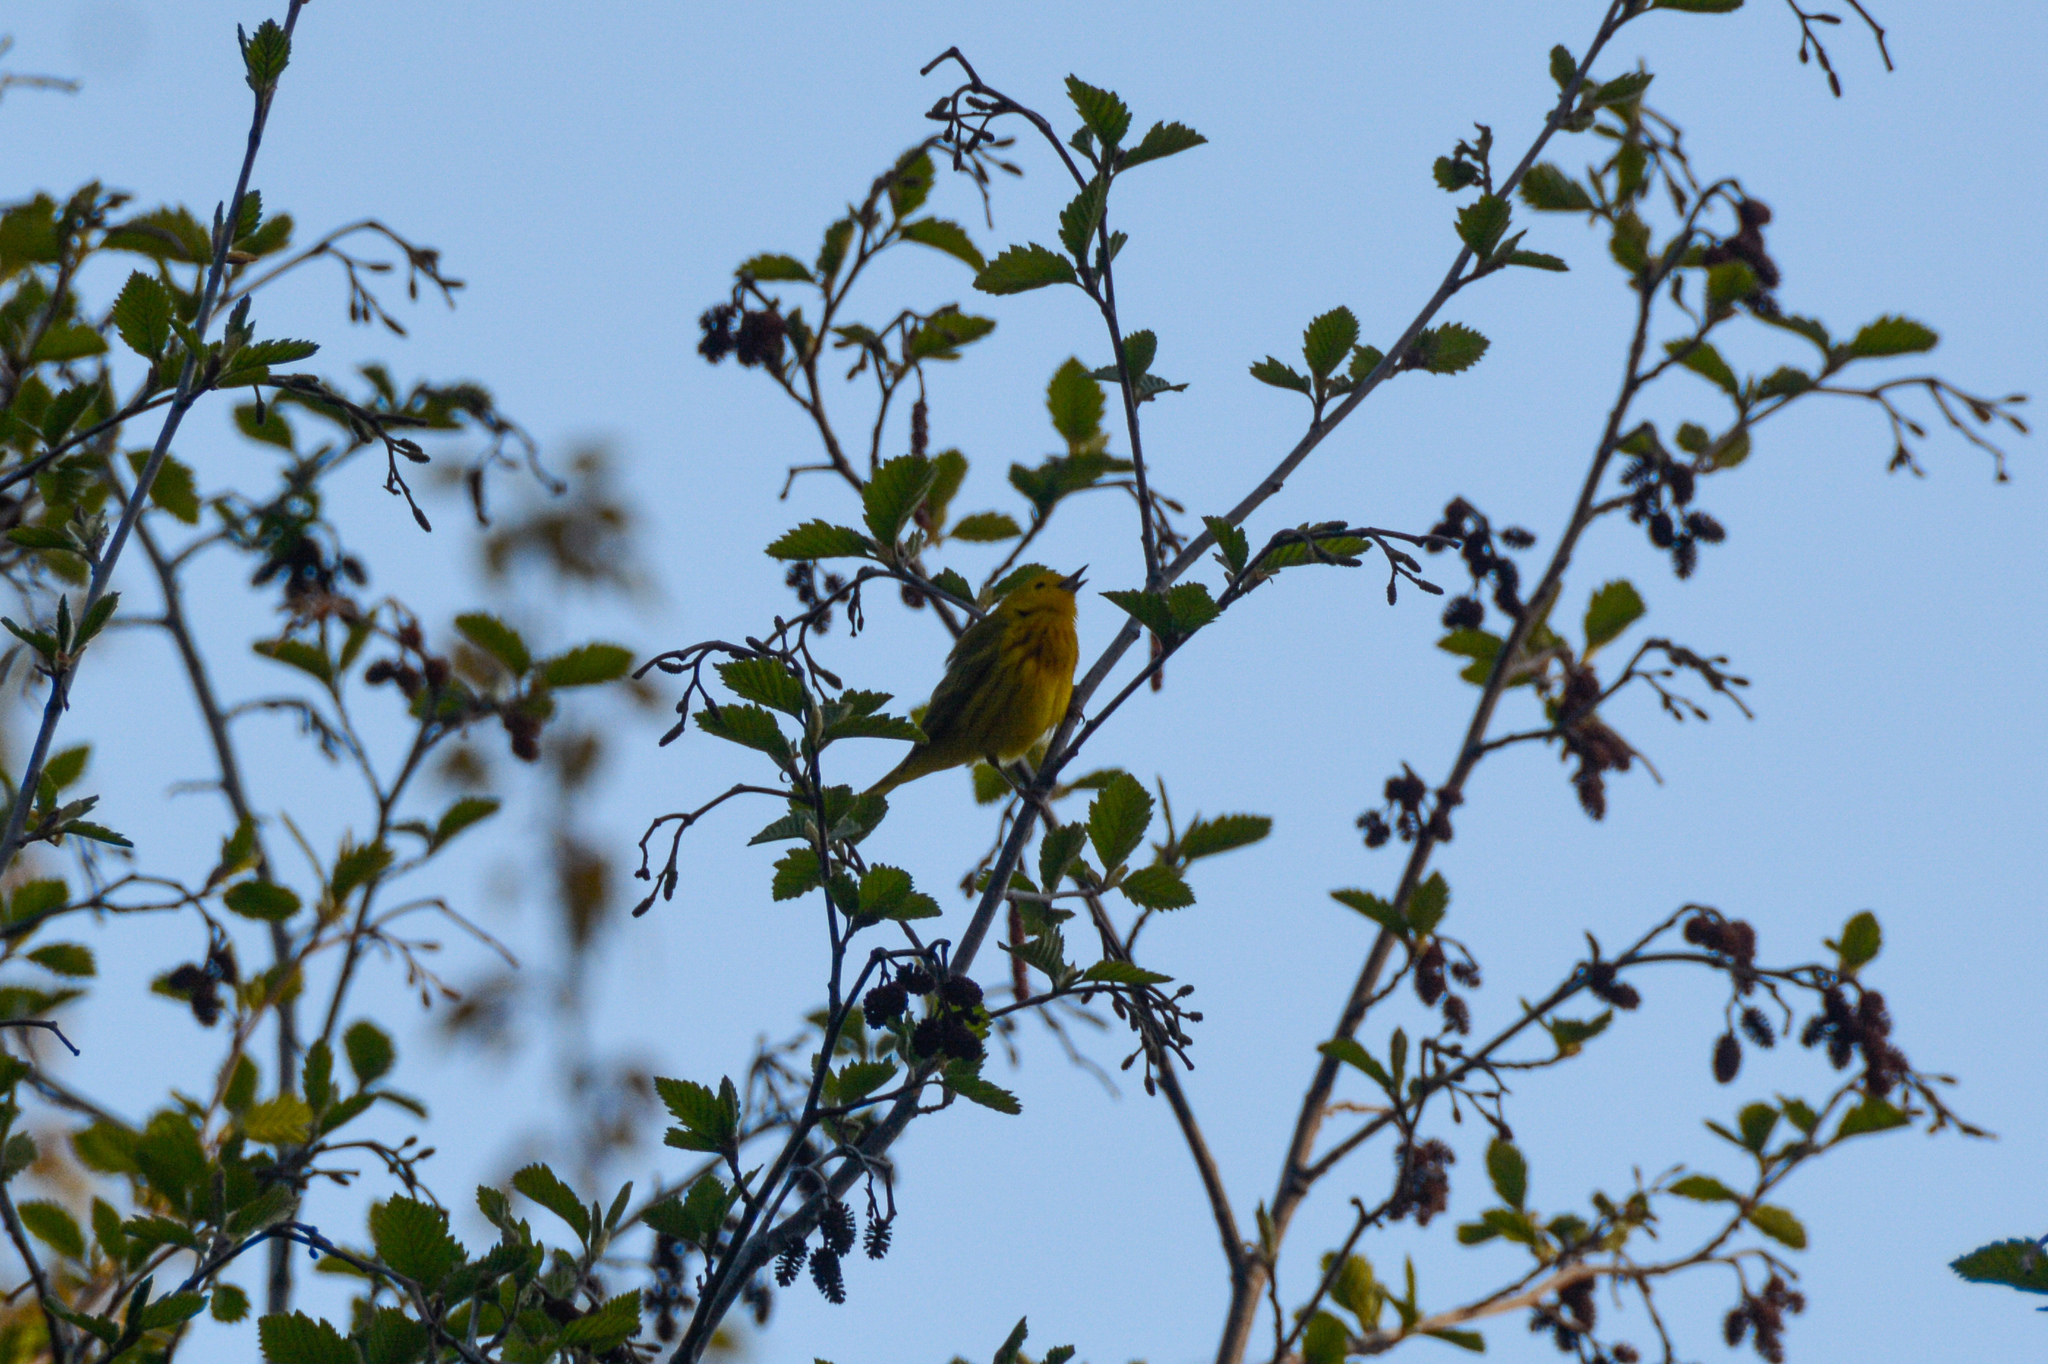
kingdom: Animalia
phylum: Chordata
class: Aves
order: Passeriformes
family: Parulidae
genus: Setophaga
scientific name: Setophaga petechia
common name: Yellow warbler
